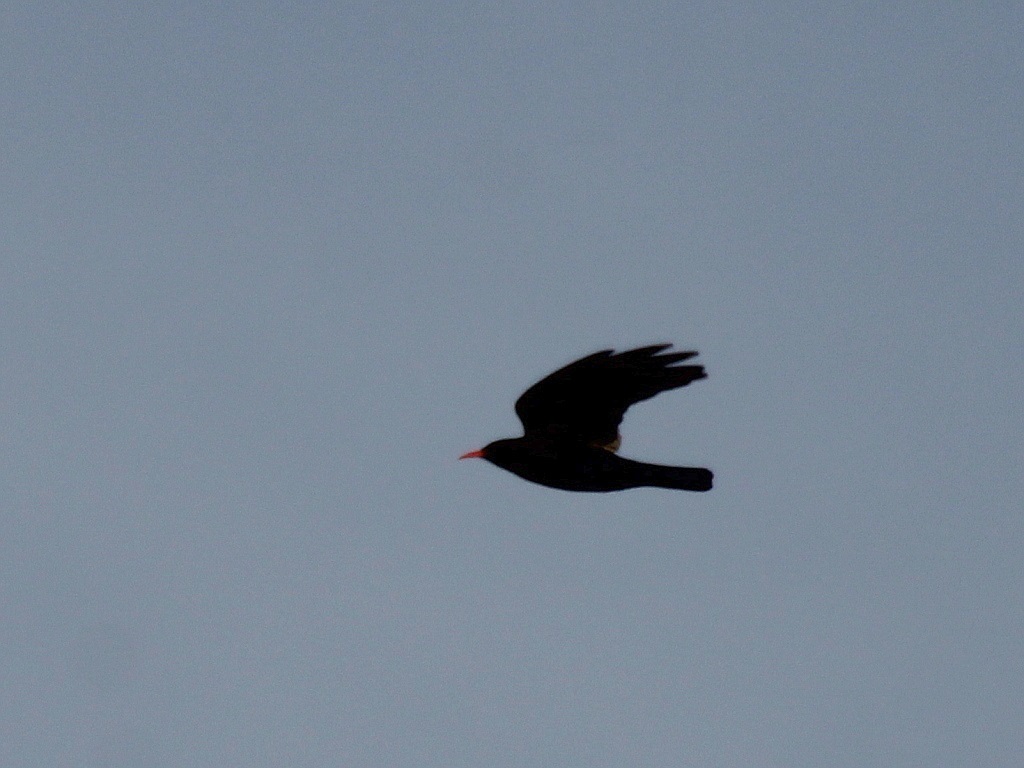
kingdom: Animalia
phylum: Chordata
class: Aves
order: Passeriformes
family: Corvidae
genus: Pyrrhocorax
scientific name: Pyrrhocorax pyrrhocorax
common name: Red-billed chough
